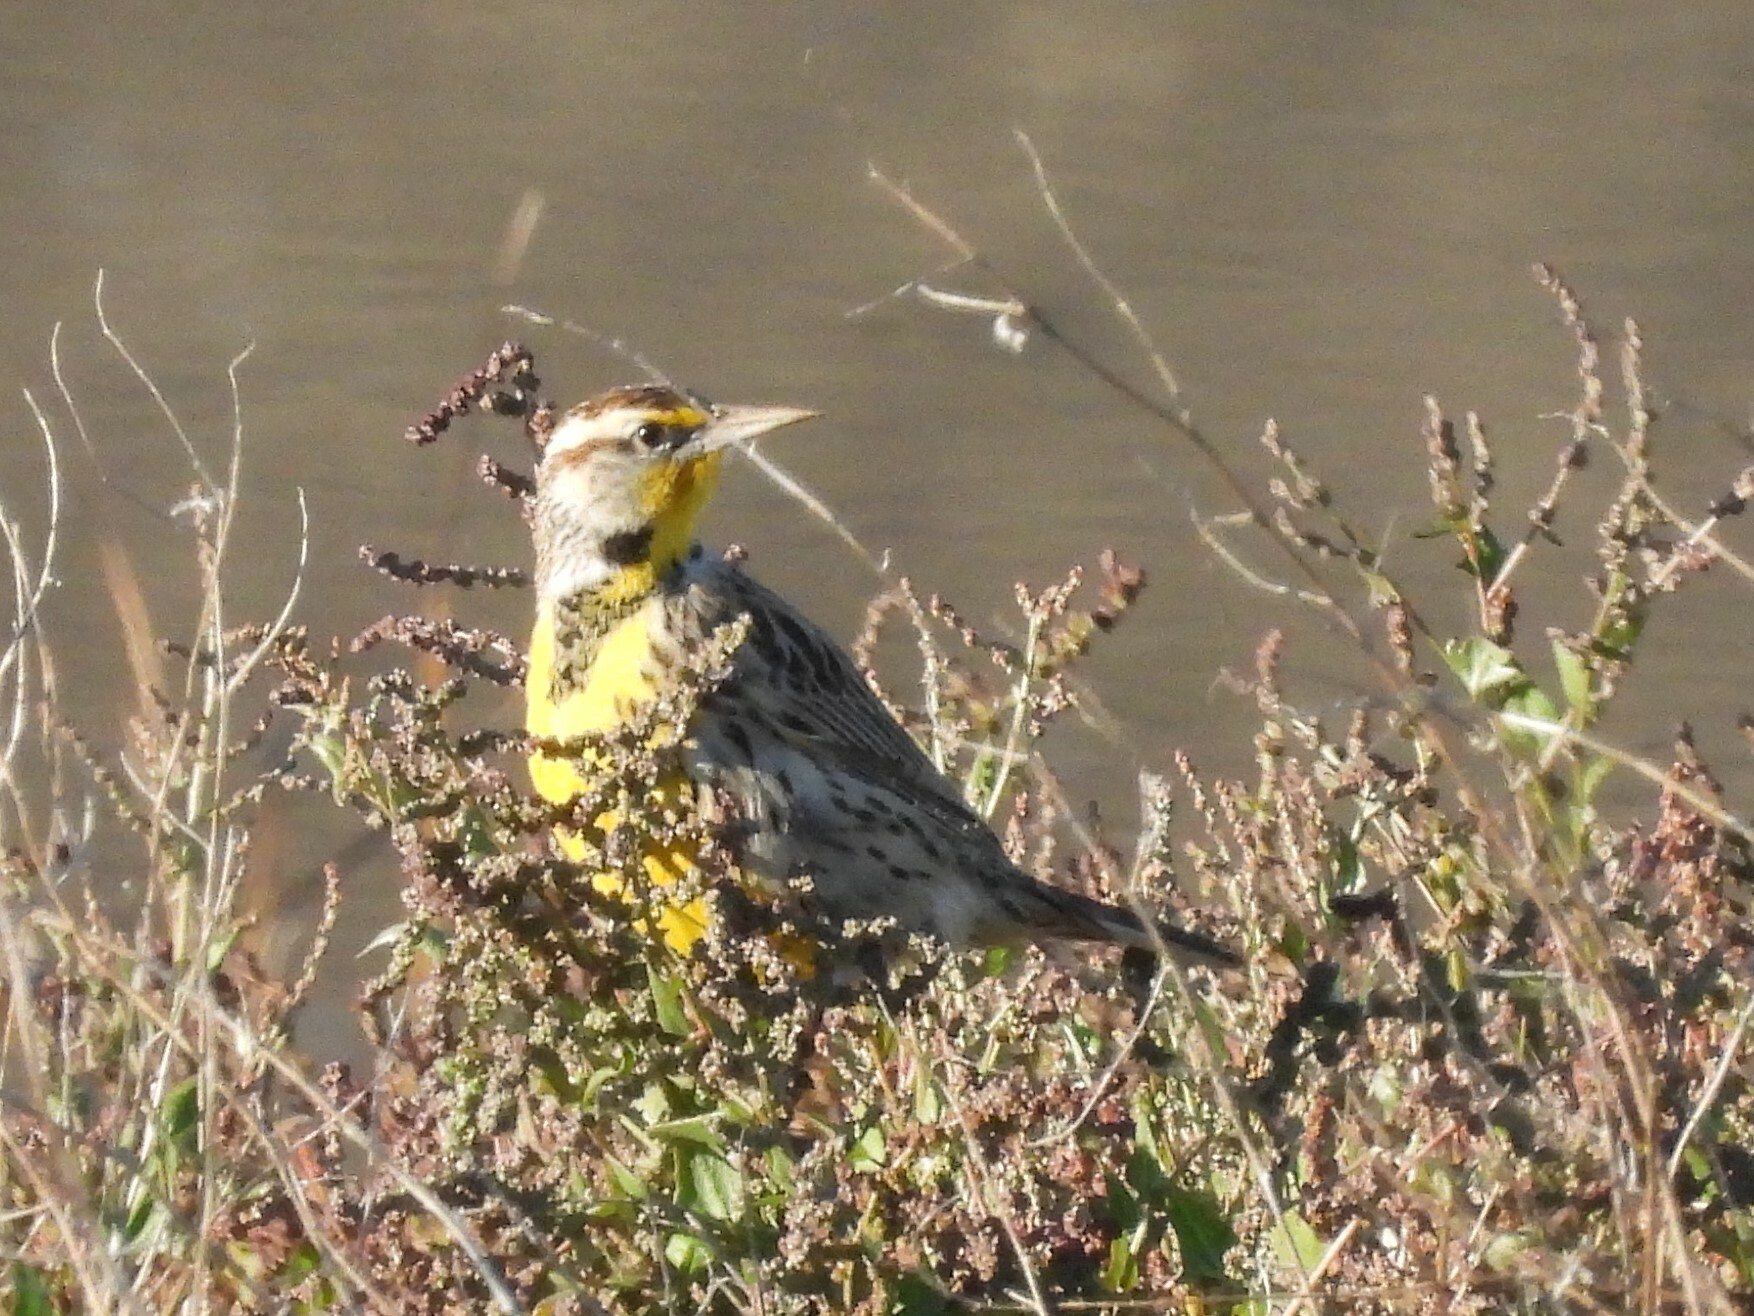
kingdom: Animalia
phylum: Chordata
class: Aves
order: Passeriformes
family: Icteridae
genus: Sturnella
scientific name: Sturnella neglecta
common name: Western meadowlark
